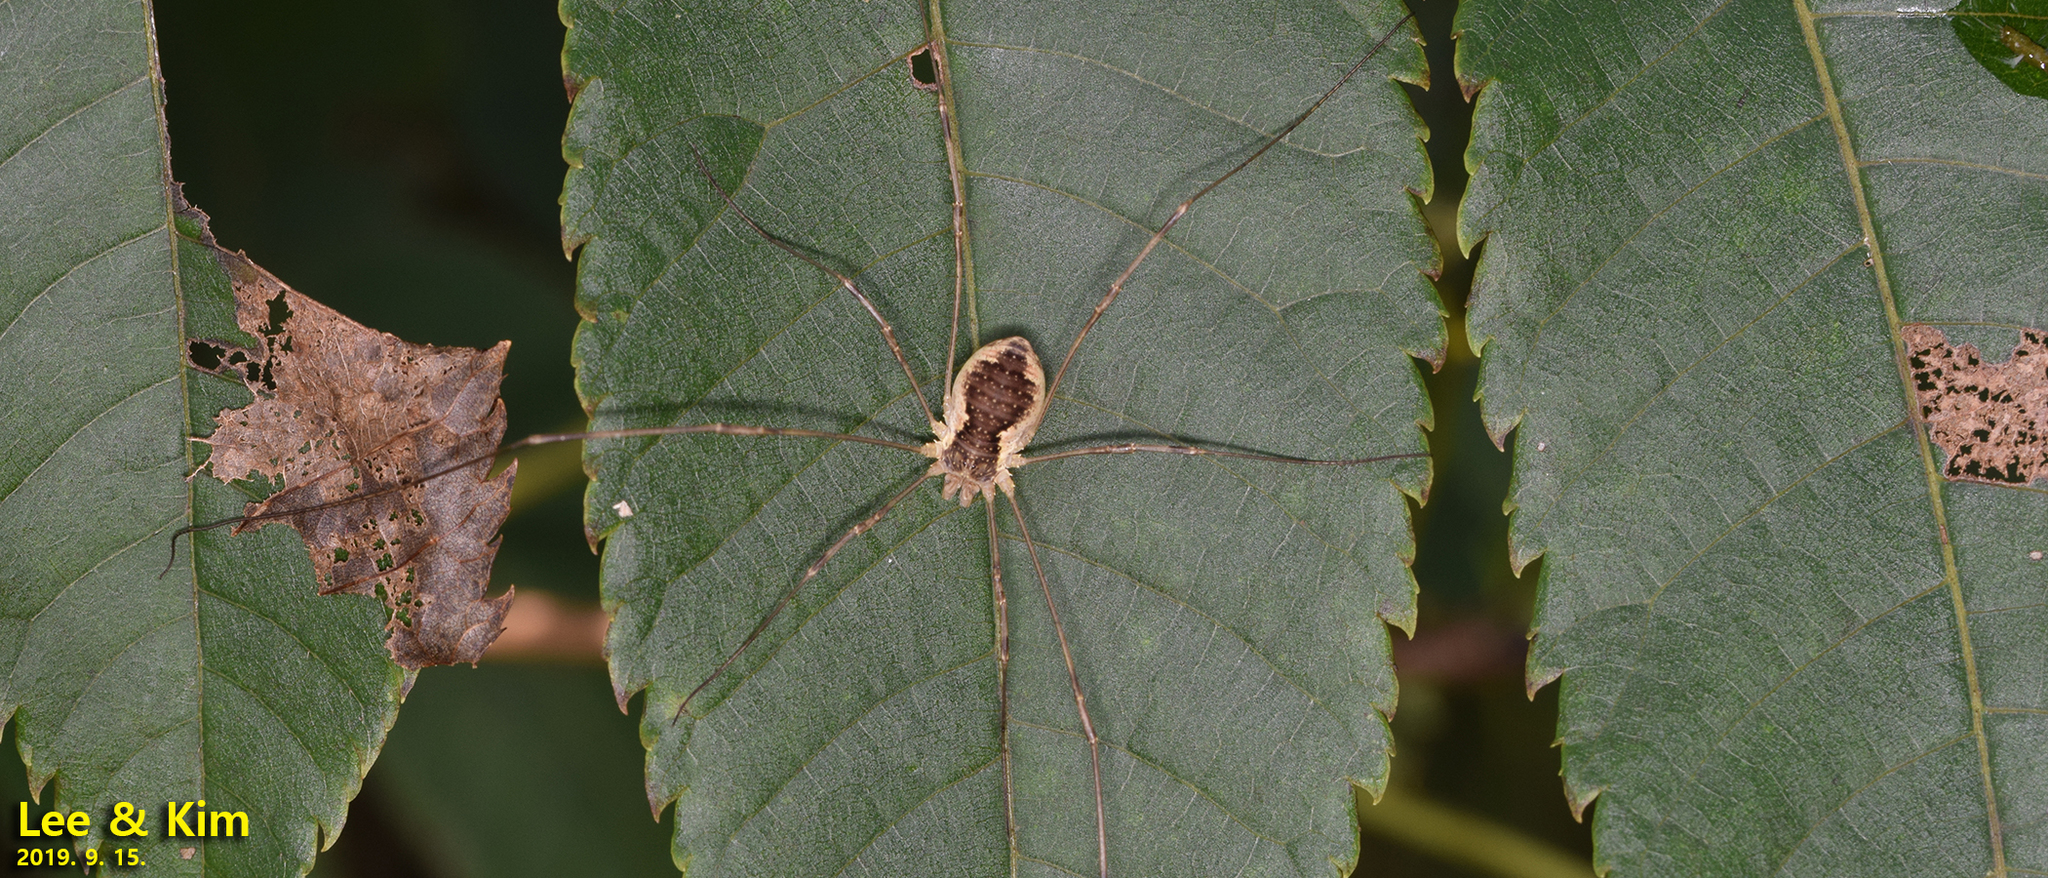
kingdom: Animalia
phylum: Arthropoda
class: Arachnida
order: Opiliones
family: Phalangiidae
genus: Oligolophus
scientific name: Oligolophus tienmushanensis
